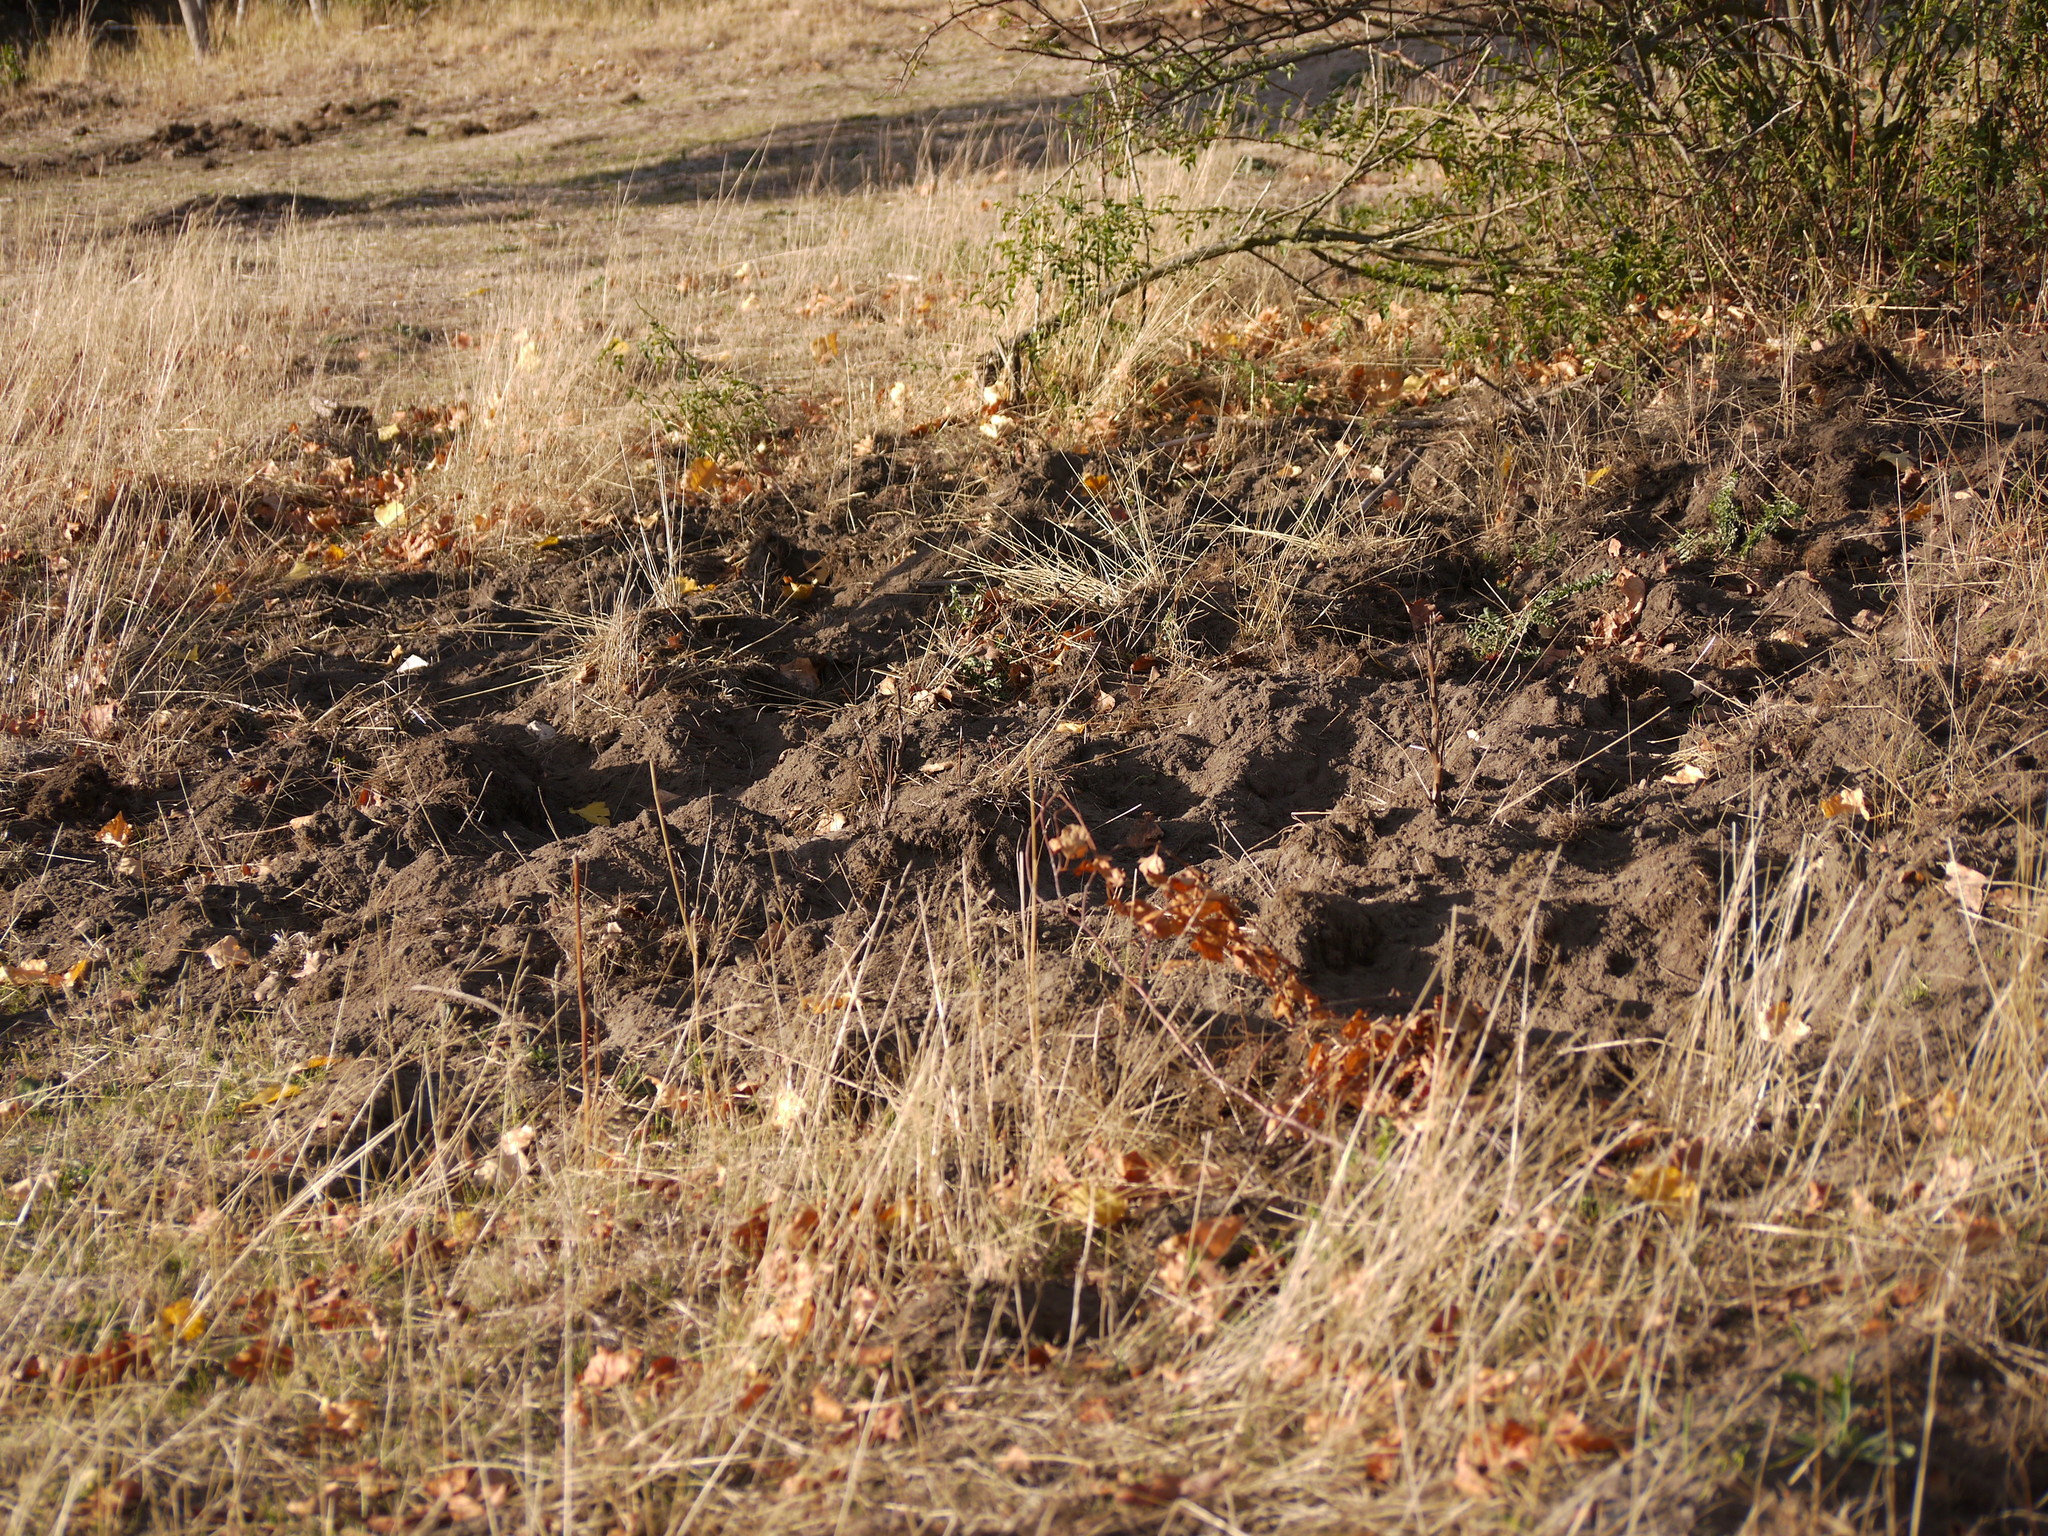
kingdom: Animalia
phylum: Chordata
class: Mammalia
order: Artiodactyla
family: Suidae
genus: Sus
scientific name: Sus scrofa
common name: Wild boar
